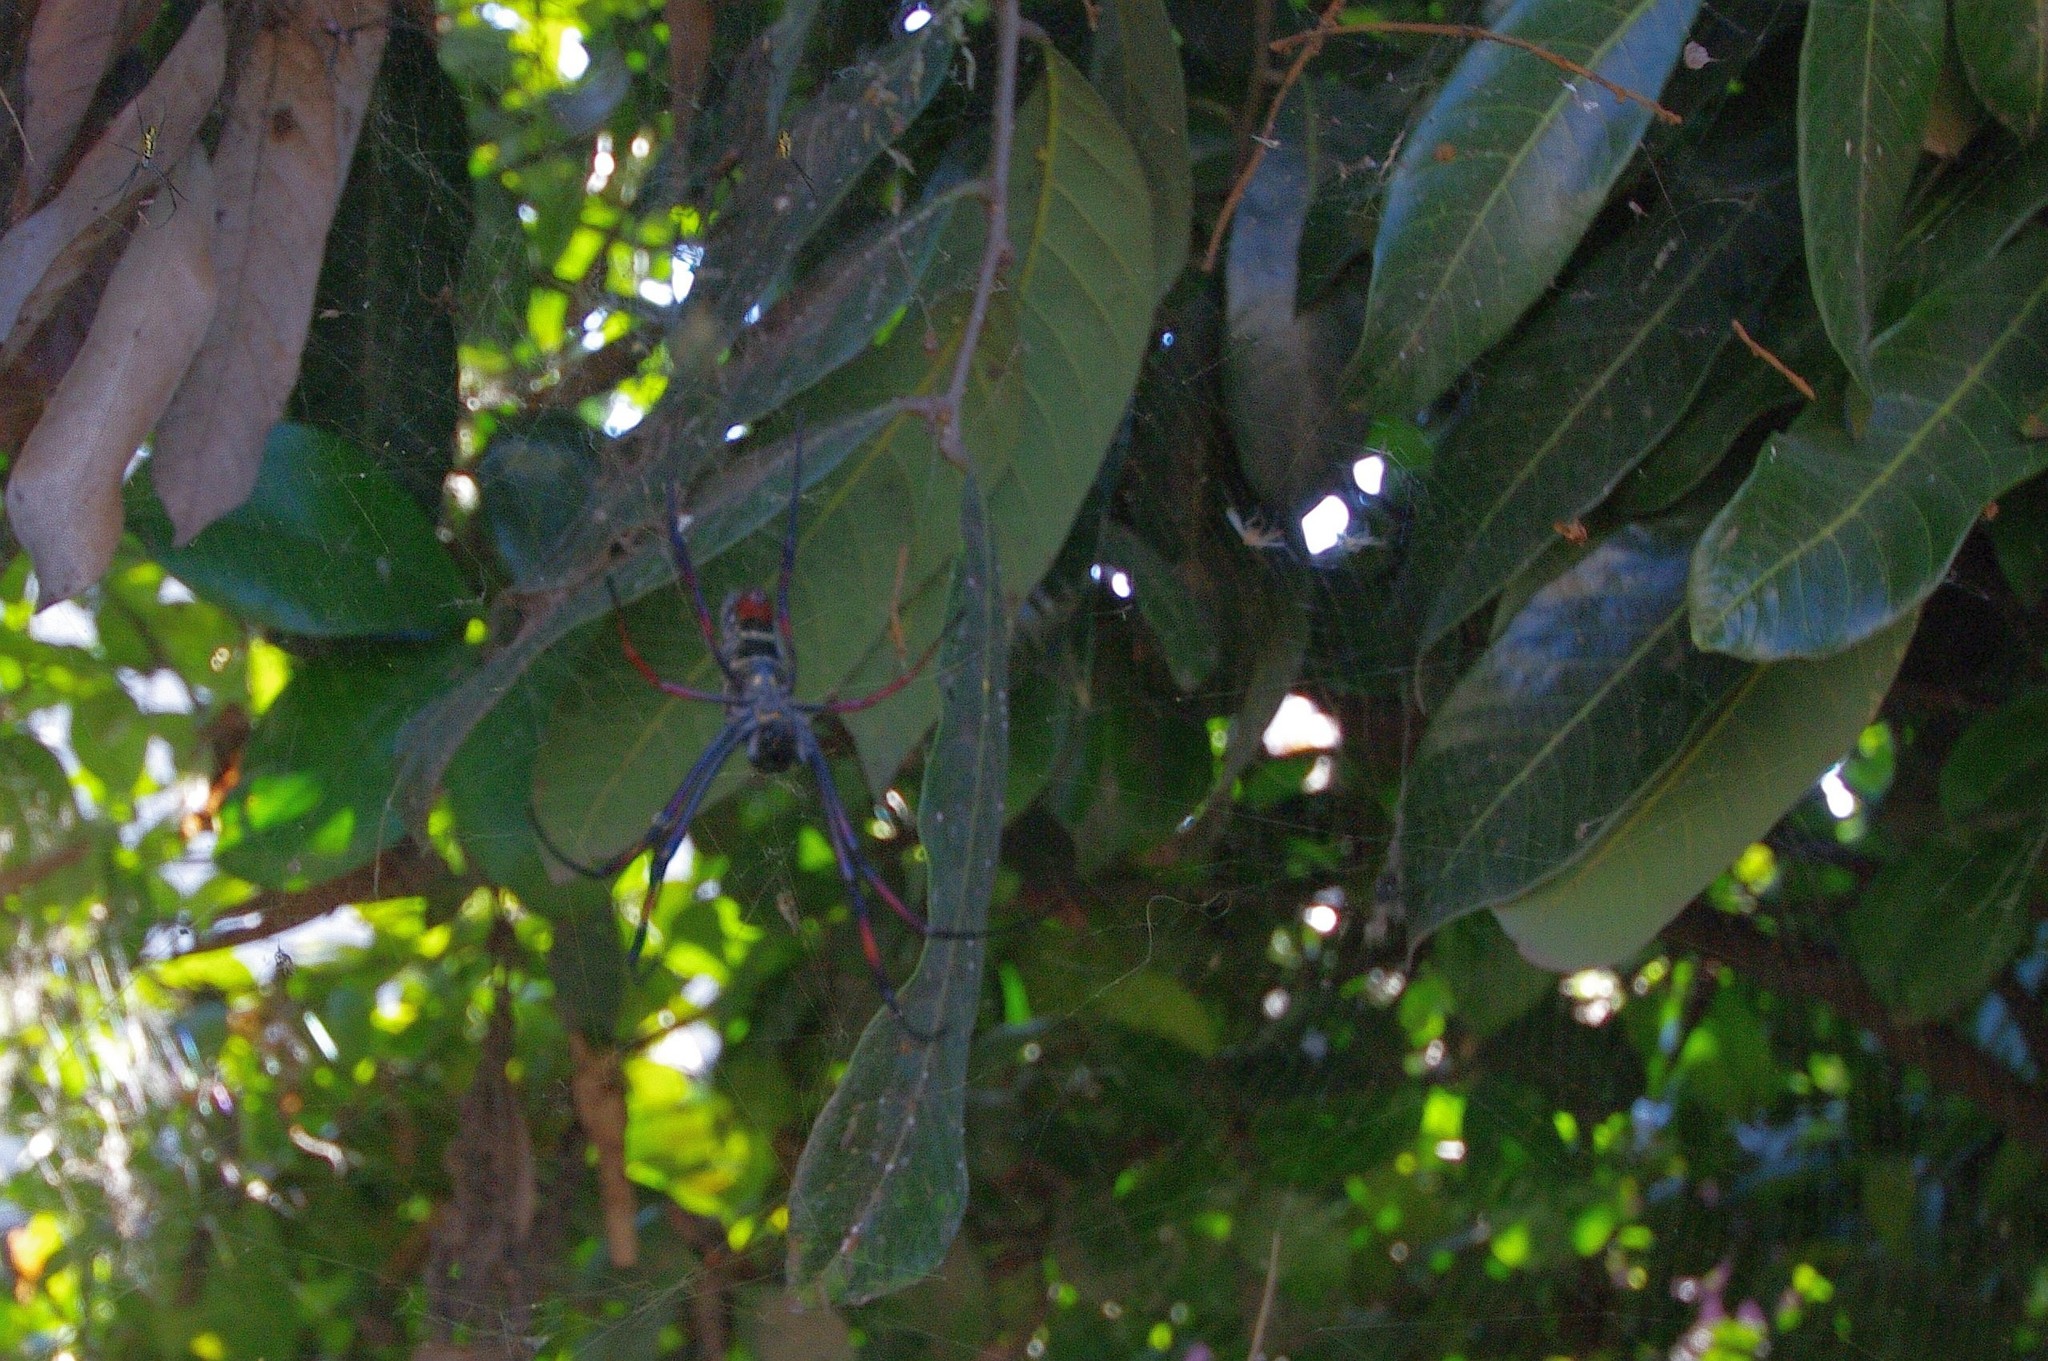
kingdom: Animalia
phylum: Arthropoda
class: Arachnida
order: Araneae
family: Araneidae
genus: Trichonephila
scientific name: Trichonephila inaurata
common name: Red-legged golden orb weaver
